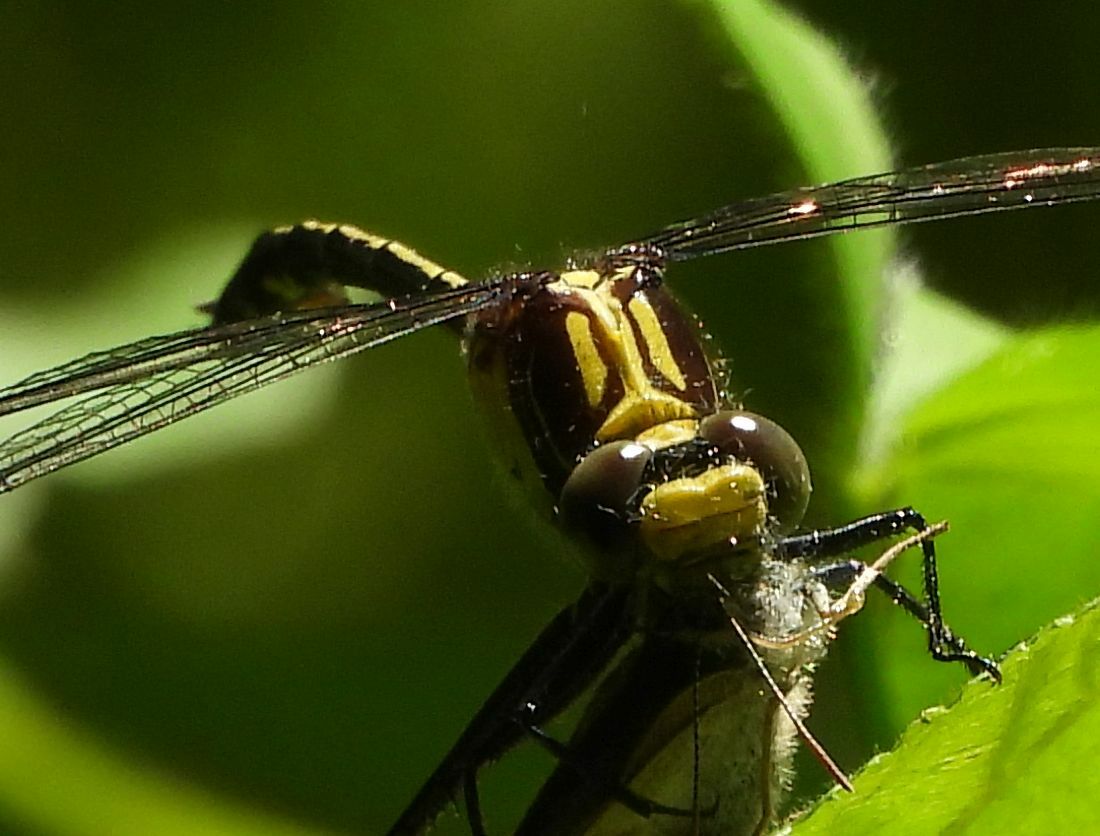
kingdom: Animalia
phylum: Arthropoda
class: Insecta
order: Odonata
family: Gomphidae
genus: Dromogomphus
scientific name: Dromogomphus spinosus
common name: Black-shouldered spinyleg
